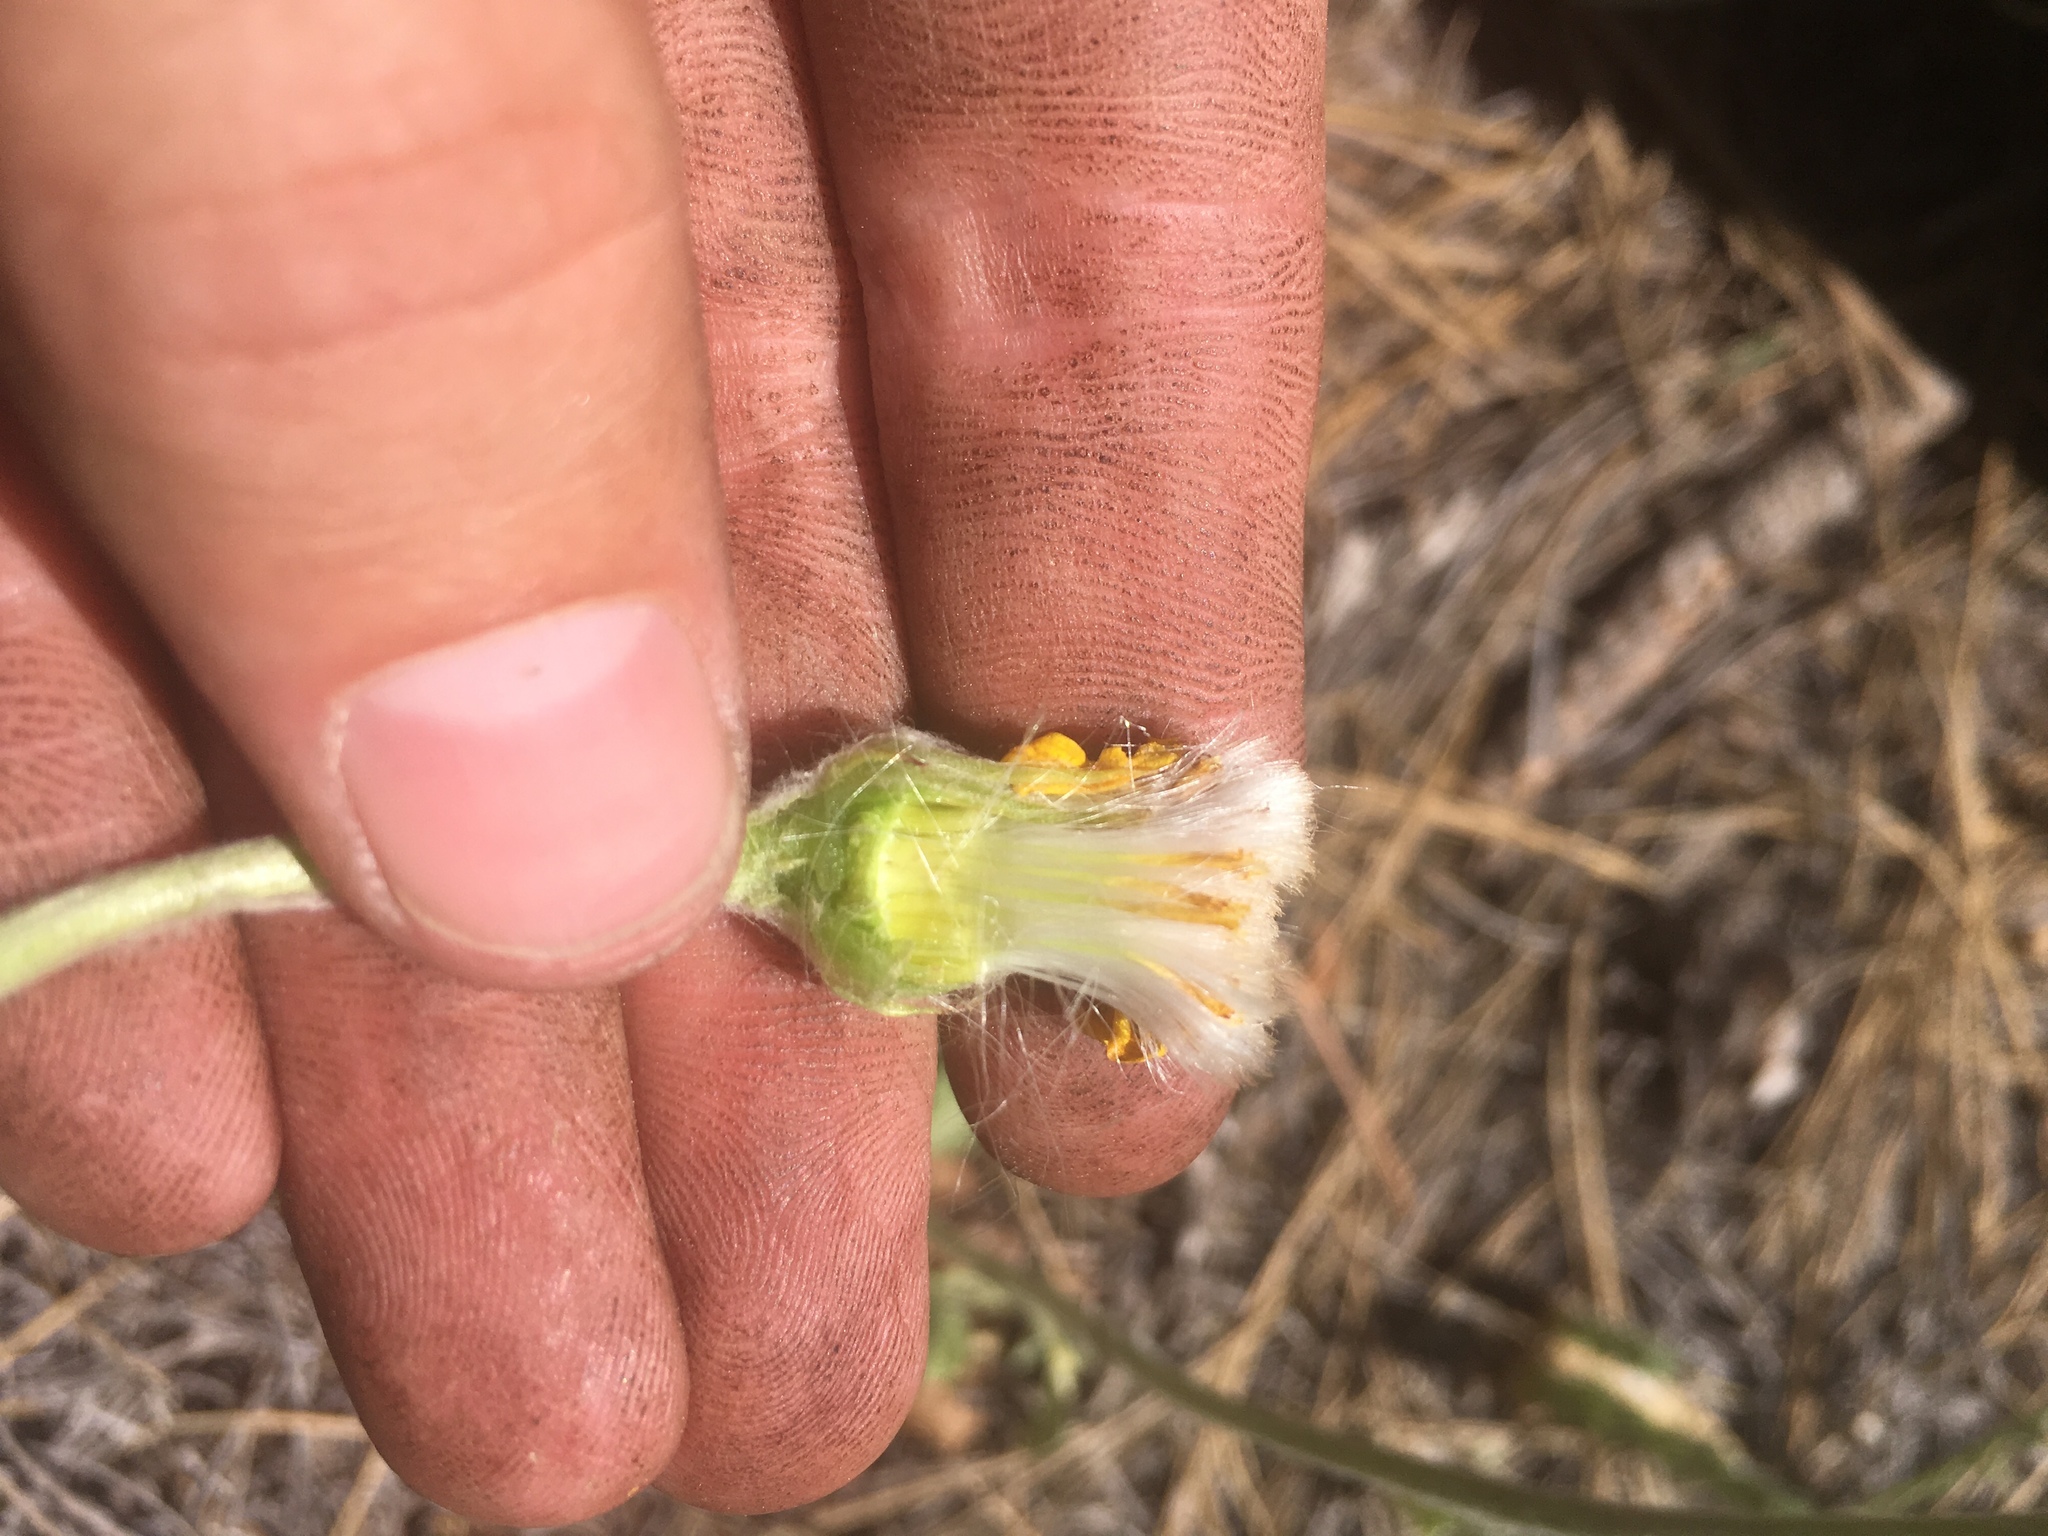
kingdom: Plantae
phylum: Tracheophyta
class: Magnoliopsida
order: Asterales
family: Asteraceae
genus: Packera
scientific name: Packera werneriifolia
